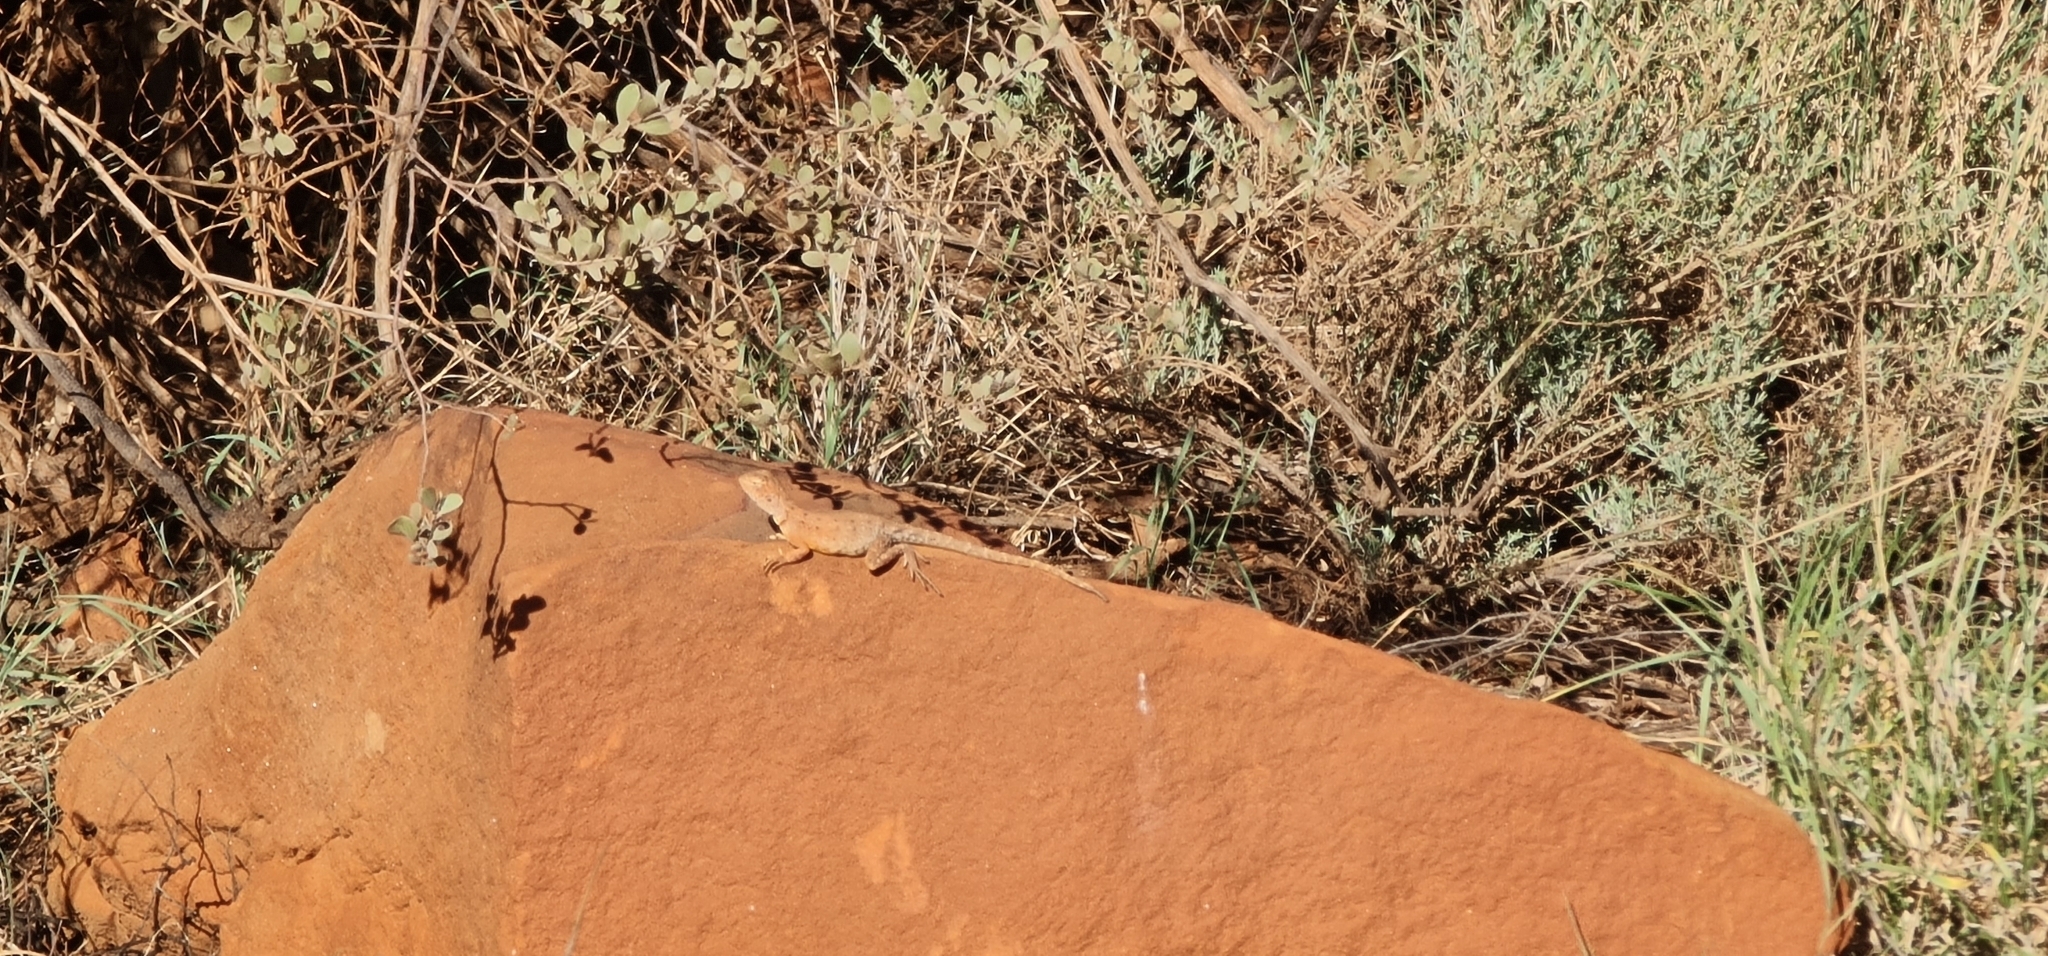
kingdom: Animalia
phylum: Chordata
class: Squamata
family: Agamidae
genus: Ctenophorus
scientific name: Ctenophorus slateri
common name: Slater’s dragon
